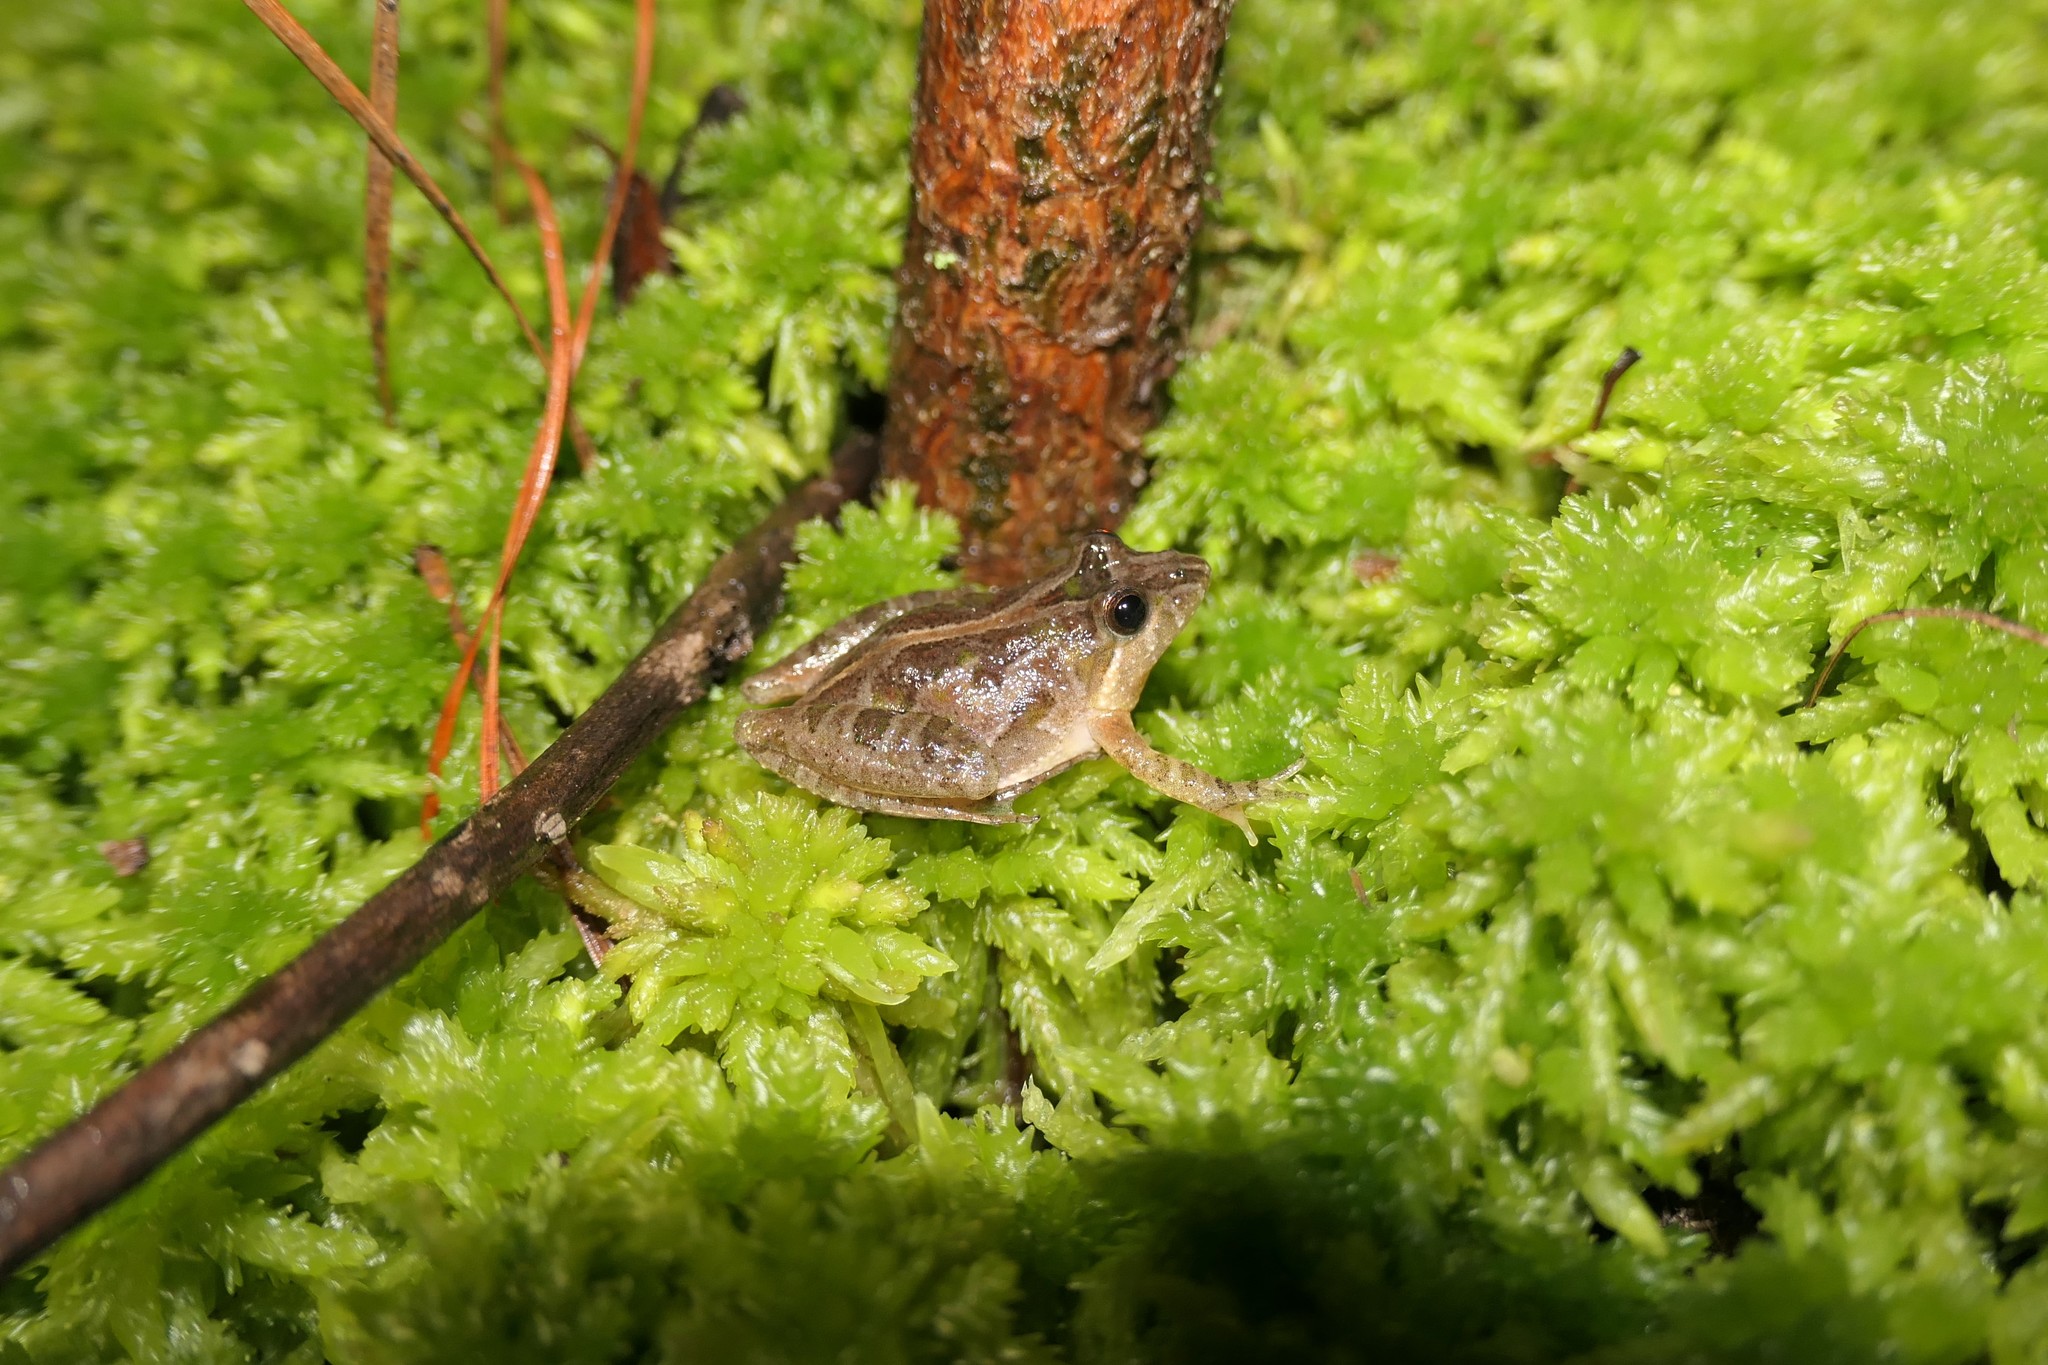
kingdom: Animalia
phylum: Chordata
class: Amphibia
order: Anura
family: Hylidae
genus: Acris
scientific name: Acris gryllus
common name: Southern cricket frog
